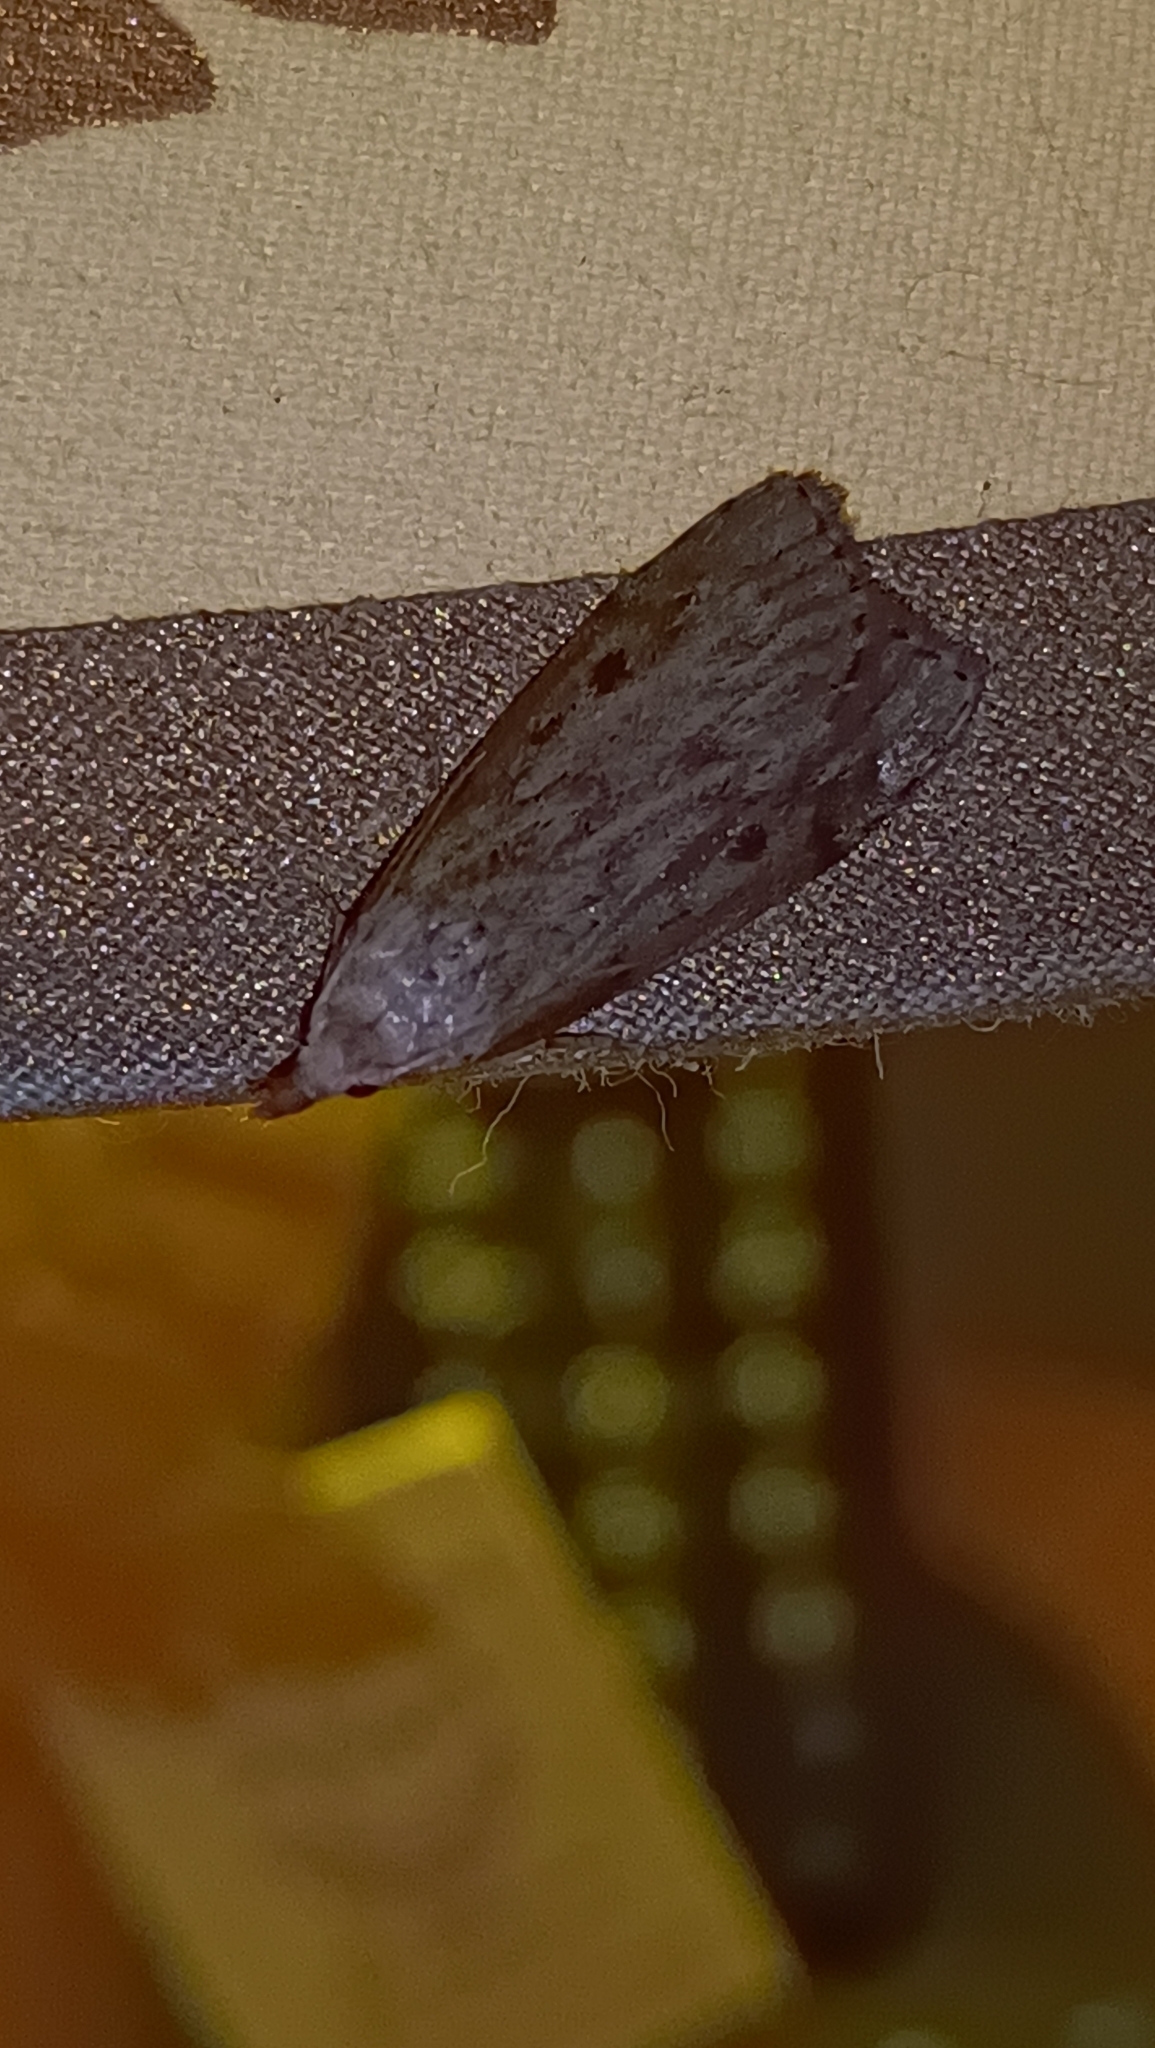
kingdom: Animalia
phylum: Arthropoda
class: Insecta
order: Lepidoptera
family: Pyralidae
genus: Aphomia
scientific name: Aphomia sociella
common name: Bee moth
